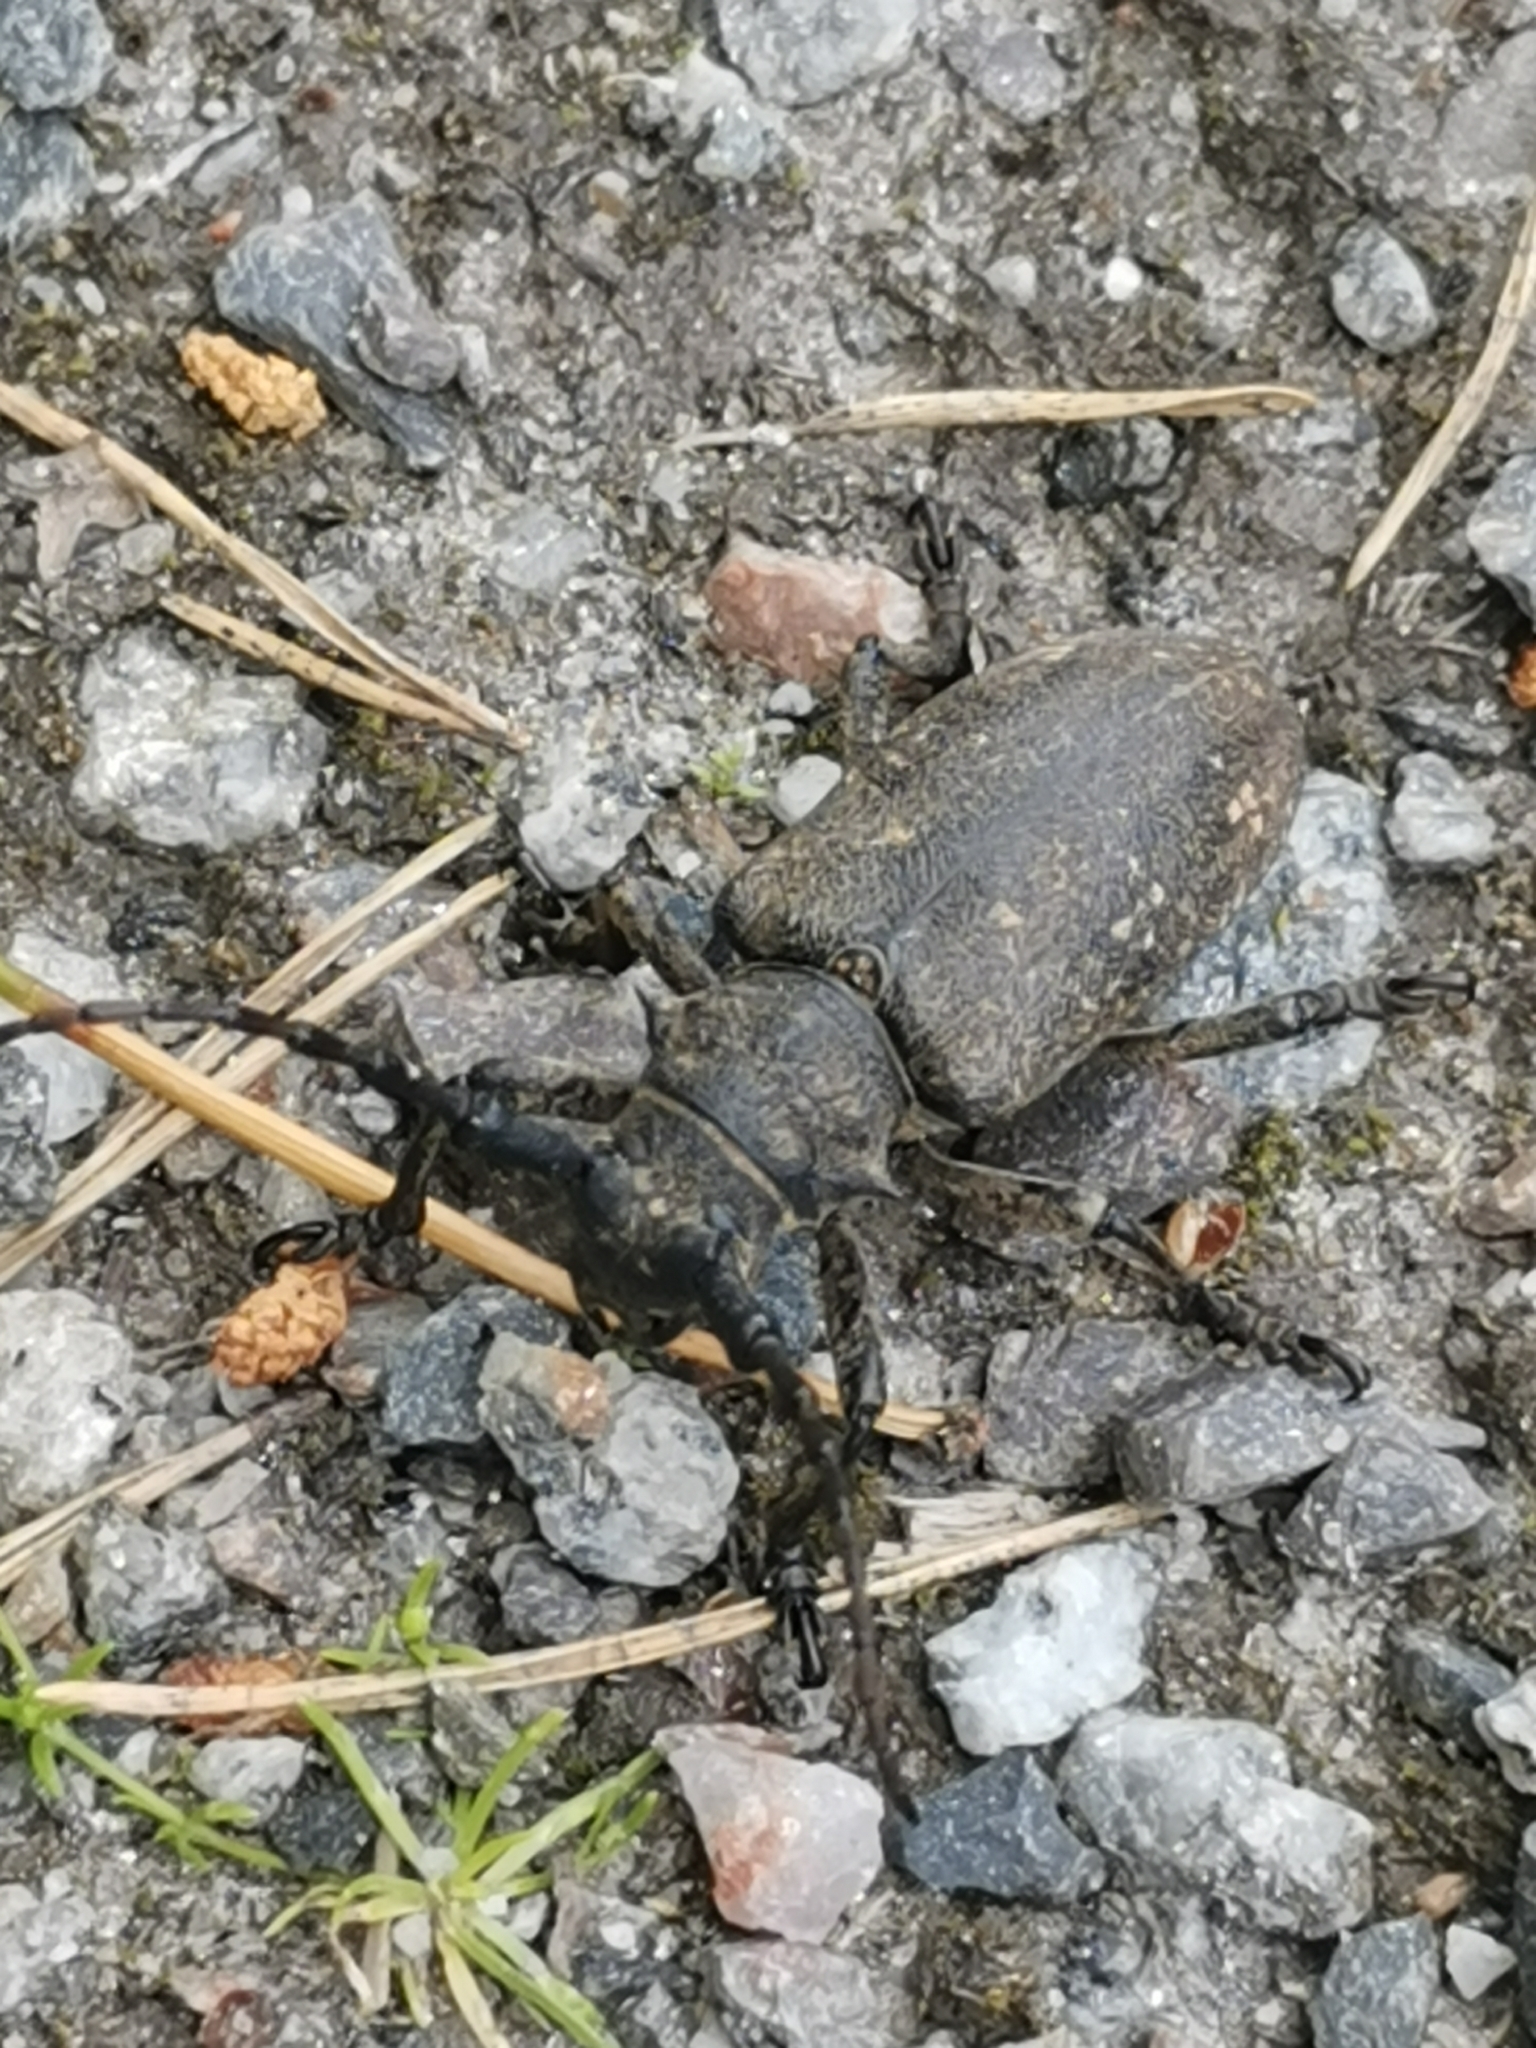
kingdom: Animalia
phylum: Arthropoda
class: Insecta
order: Coleoptera
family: Cerambycidae
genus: Lamia
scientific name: Lamia textor
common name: Weaver beetle
